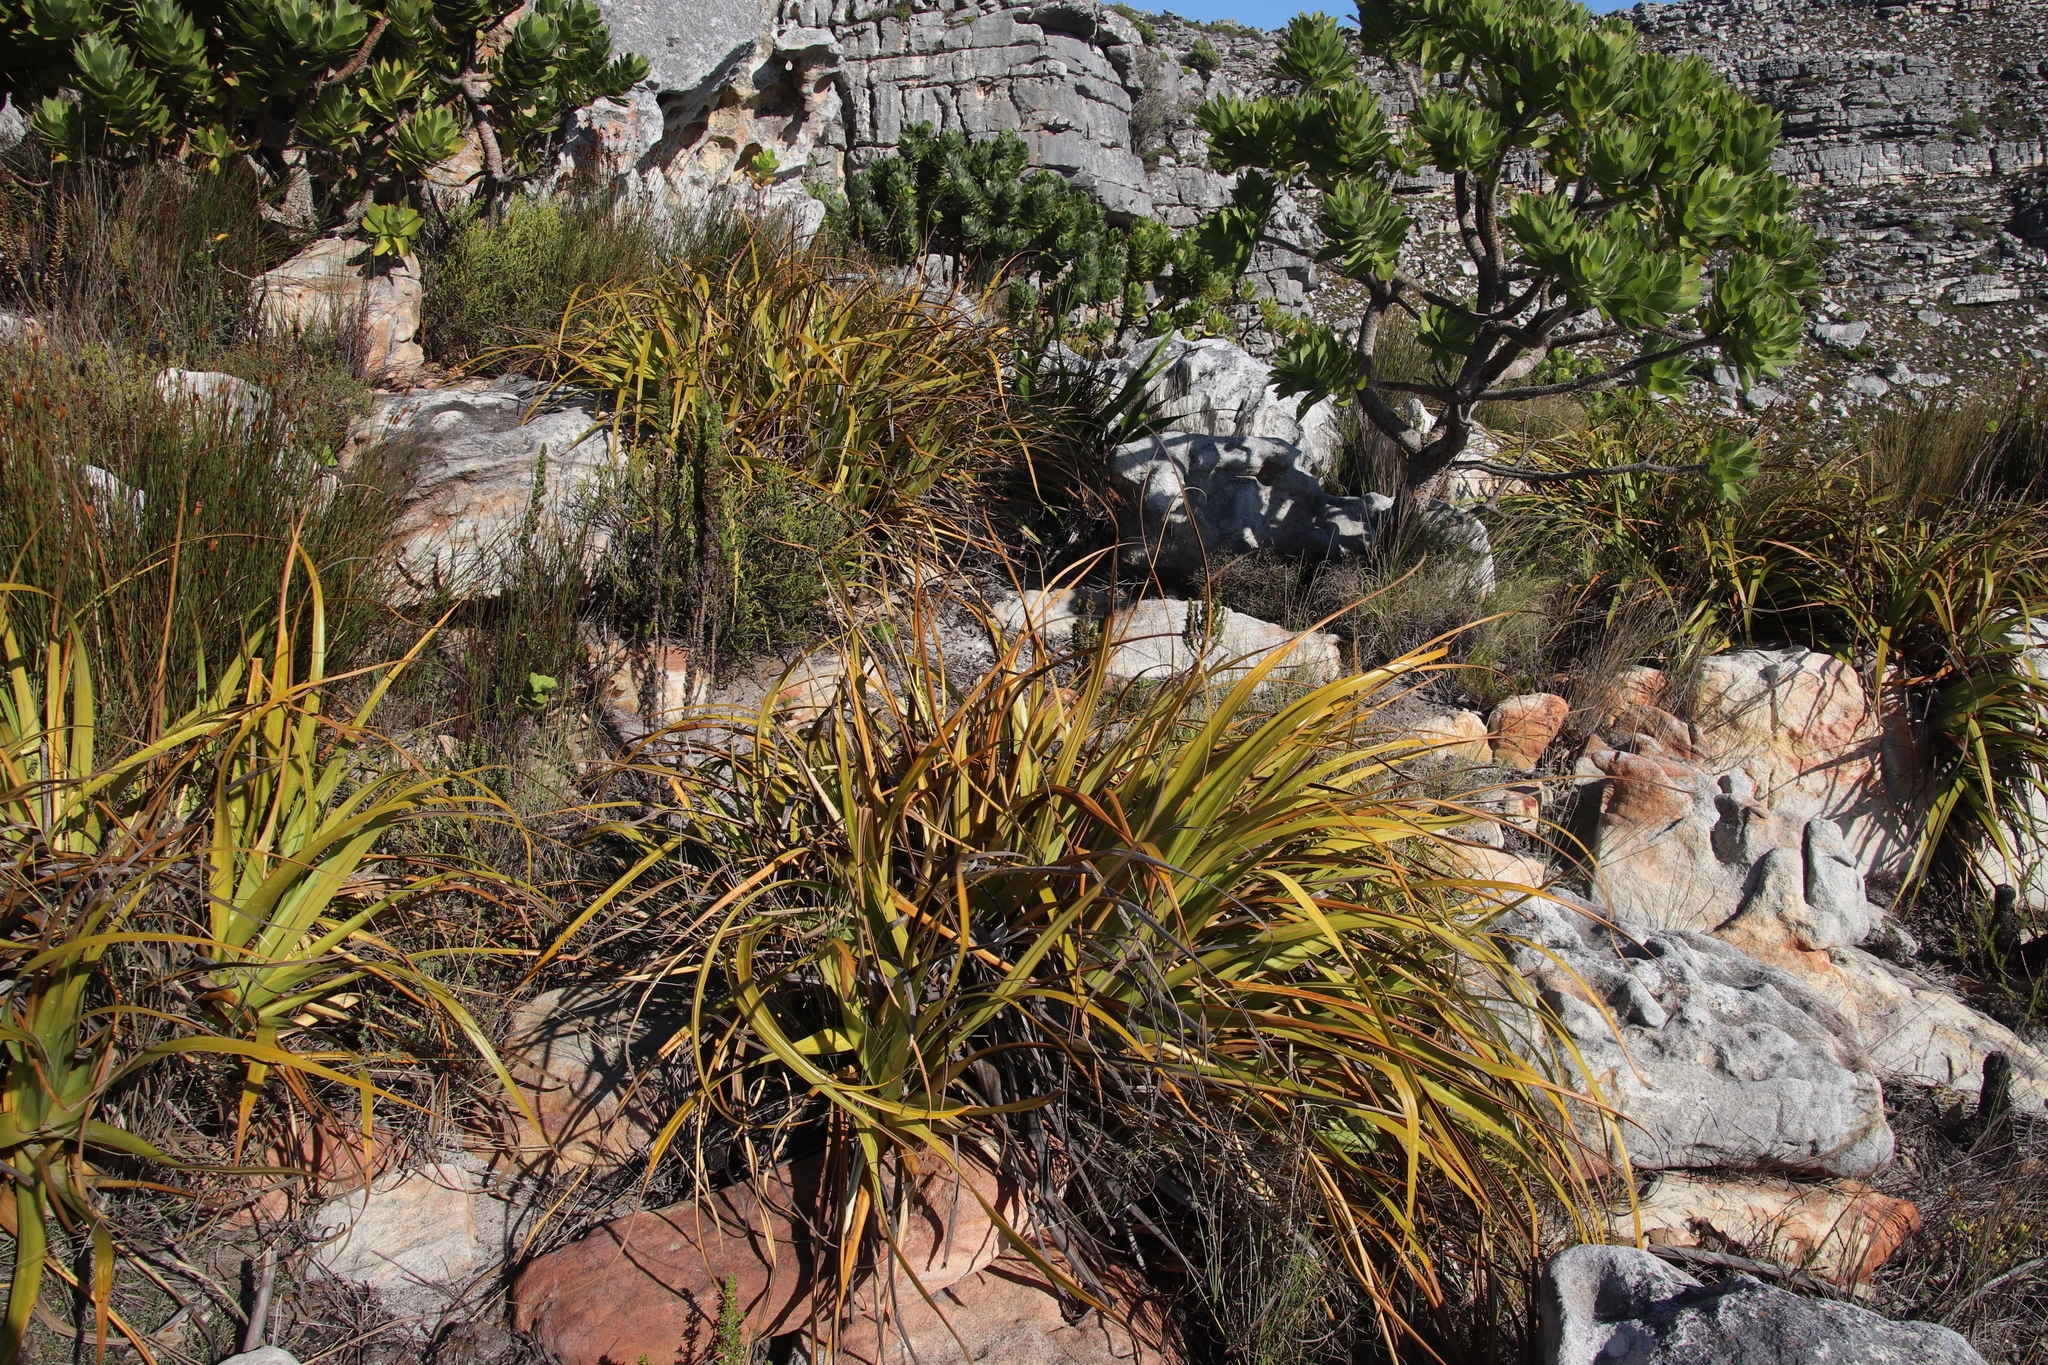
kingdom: Plantae
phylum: Tracheophyta
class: Liliopsida
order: Poales
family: Cyperaceae
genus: Tetraria
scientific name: Tetraria thermalis
